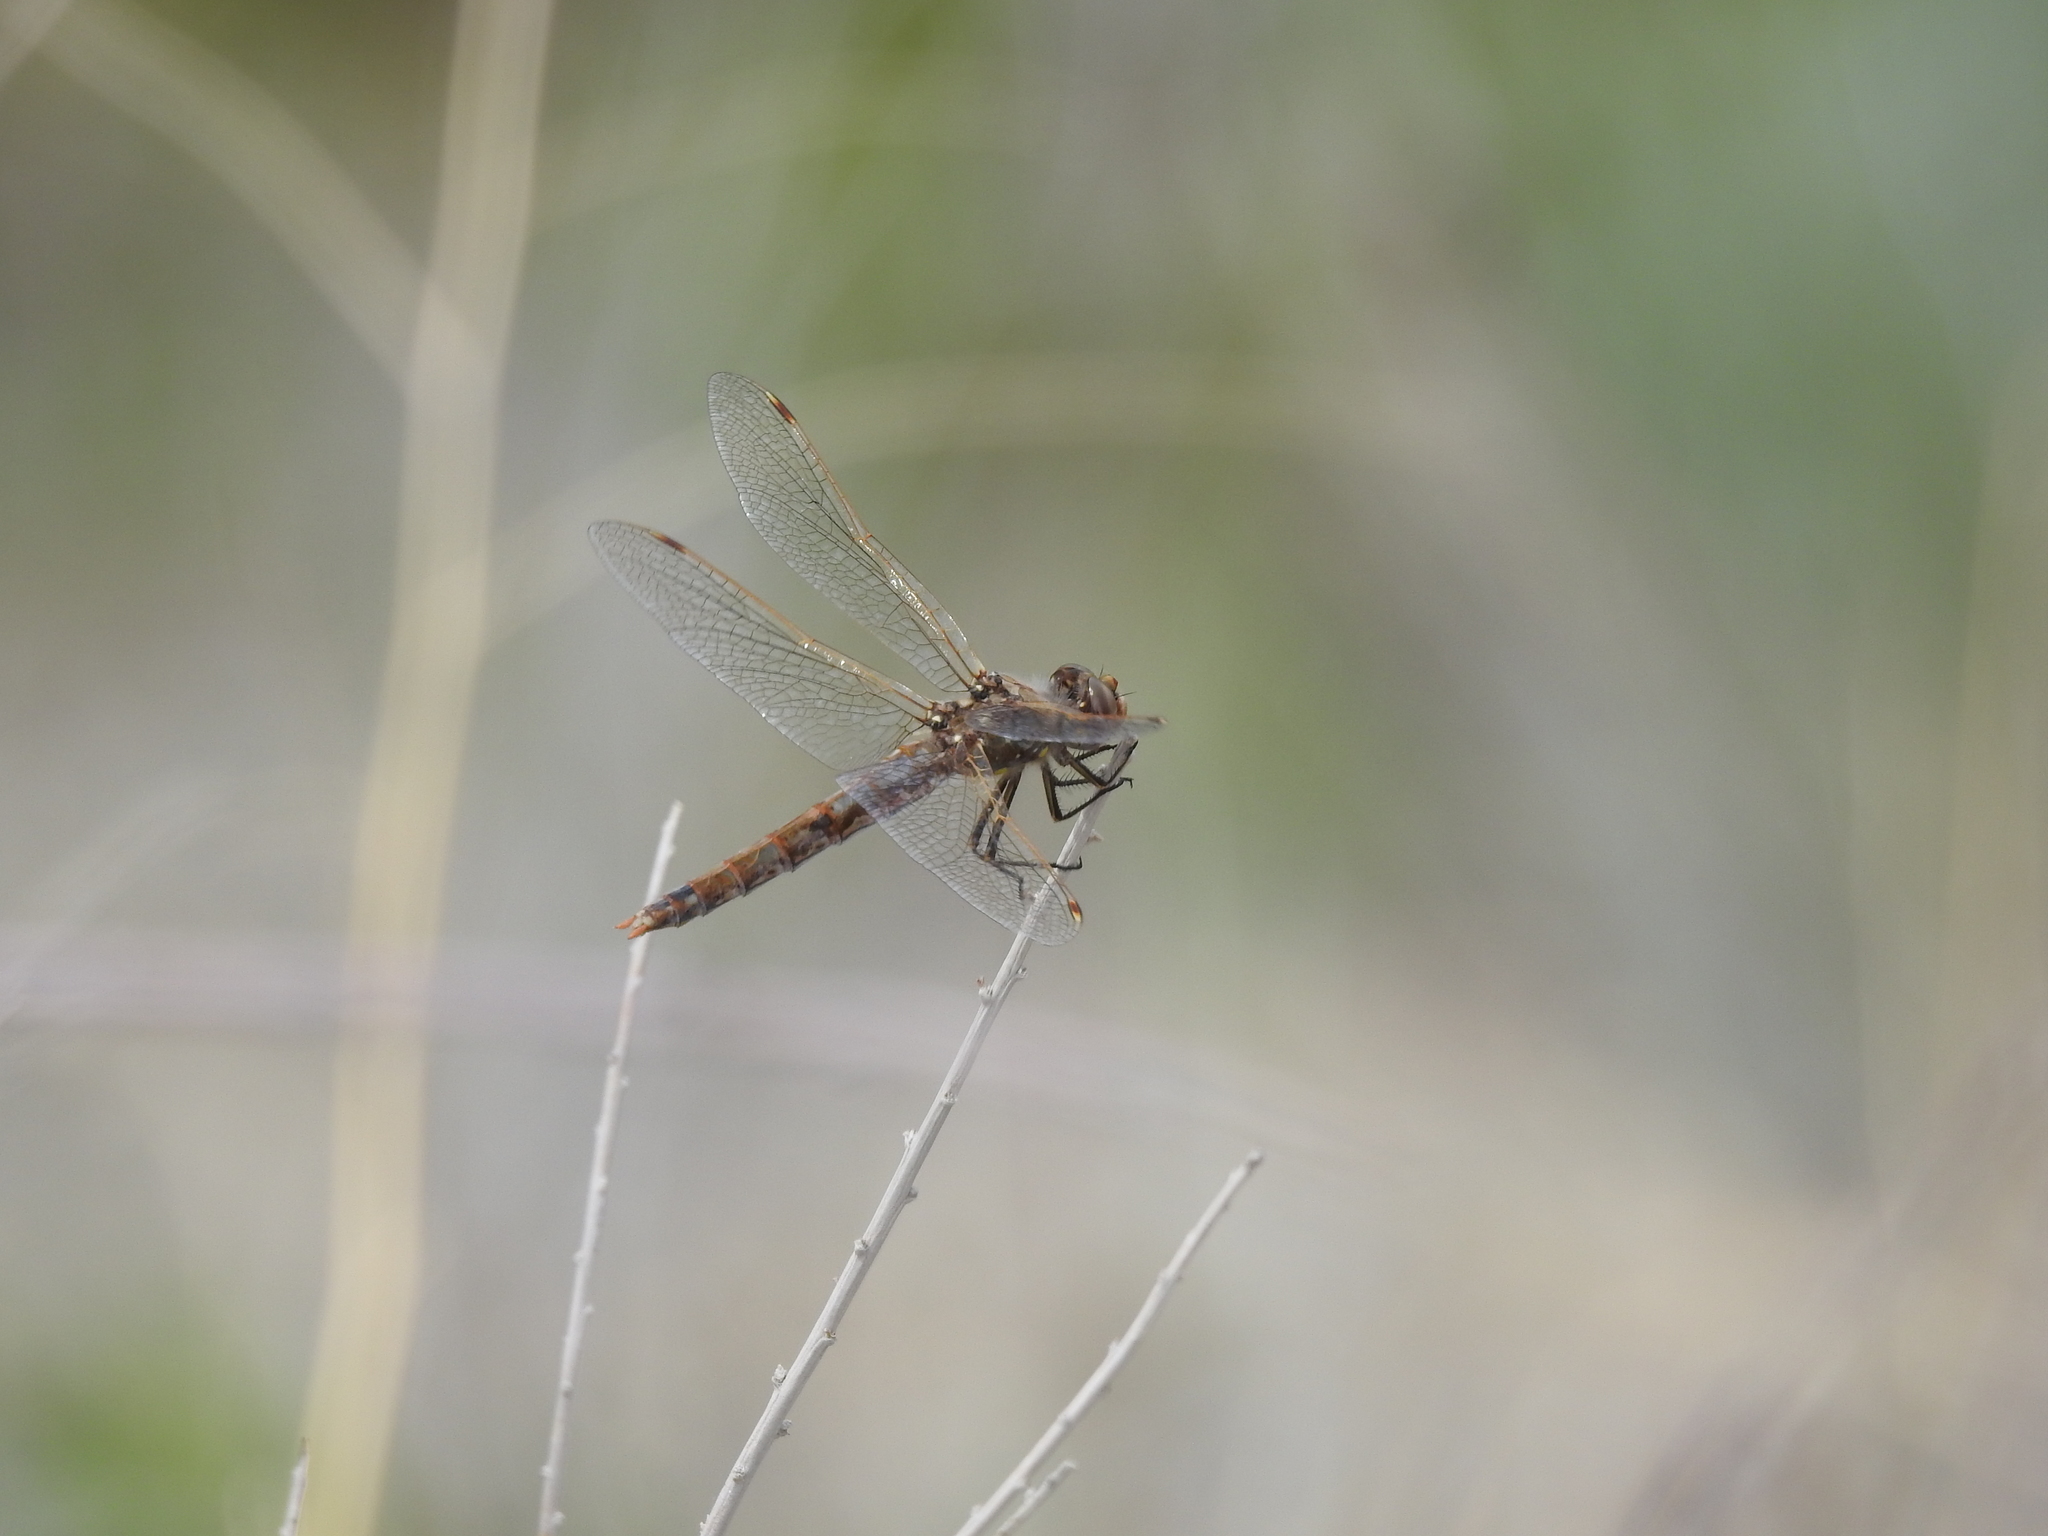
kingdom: Animalia
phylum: Arthropoda
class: Insecta
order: Odonata
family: Libellulidae
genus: Sympetrum
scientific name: Sympetrum corruptum
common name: Variegated meadowhawk
